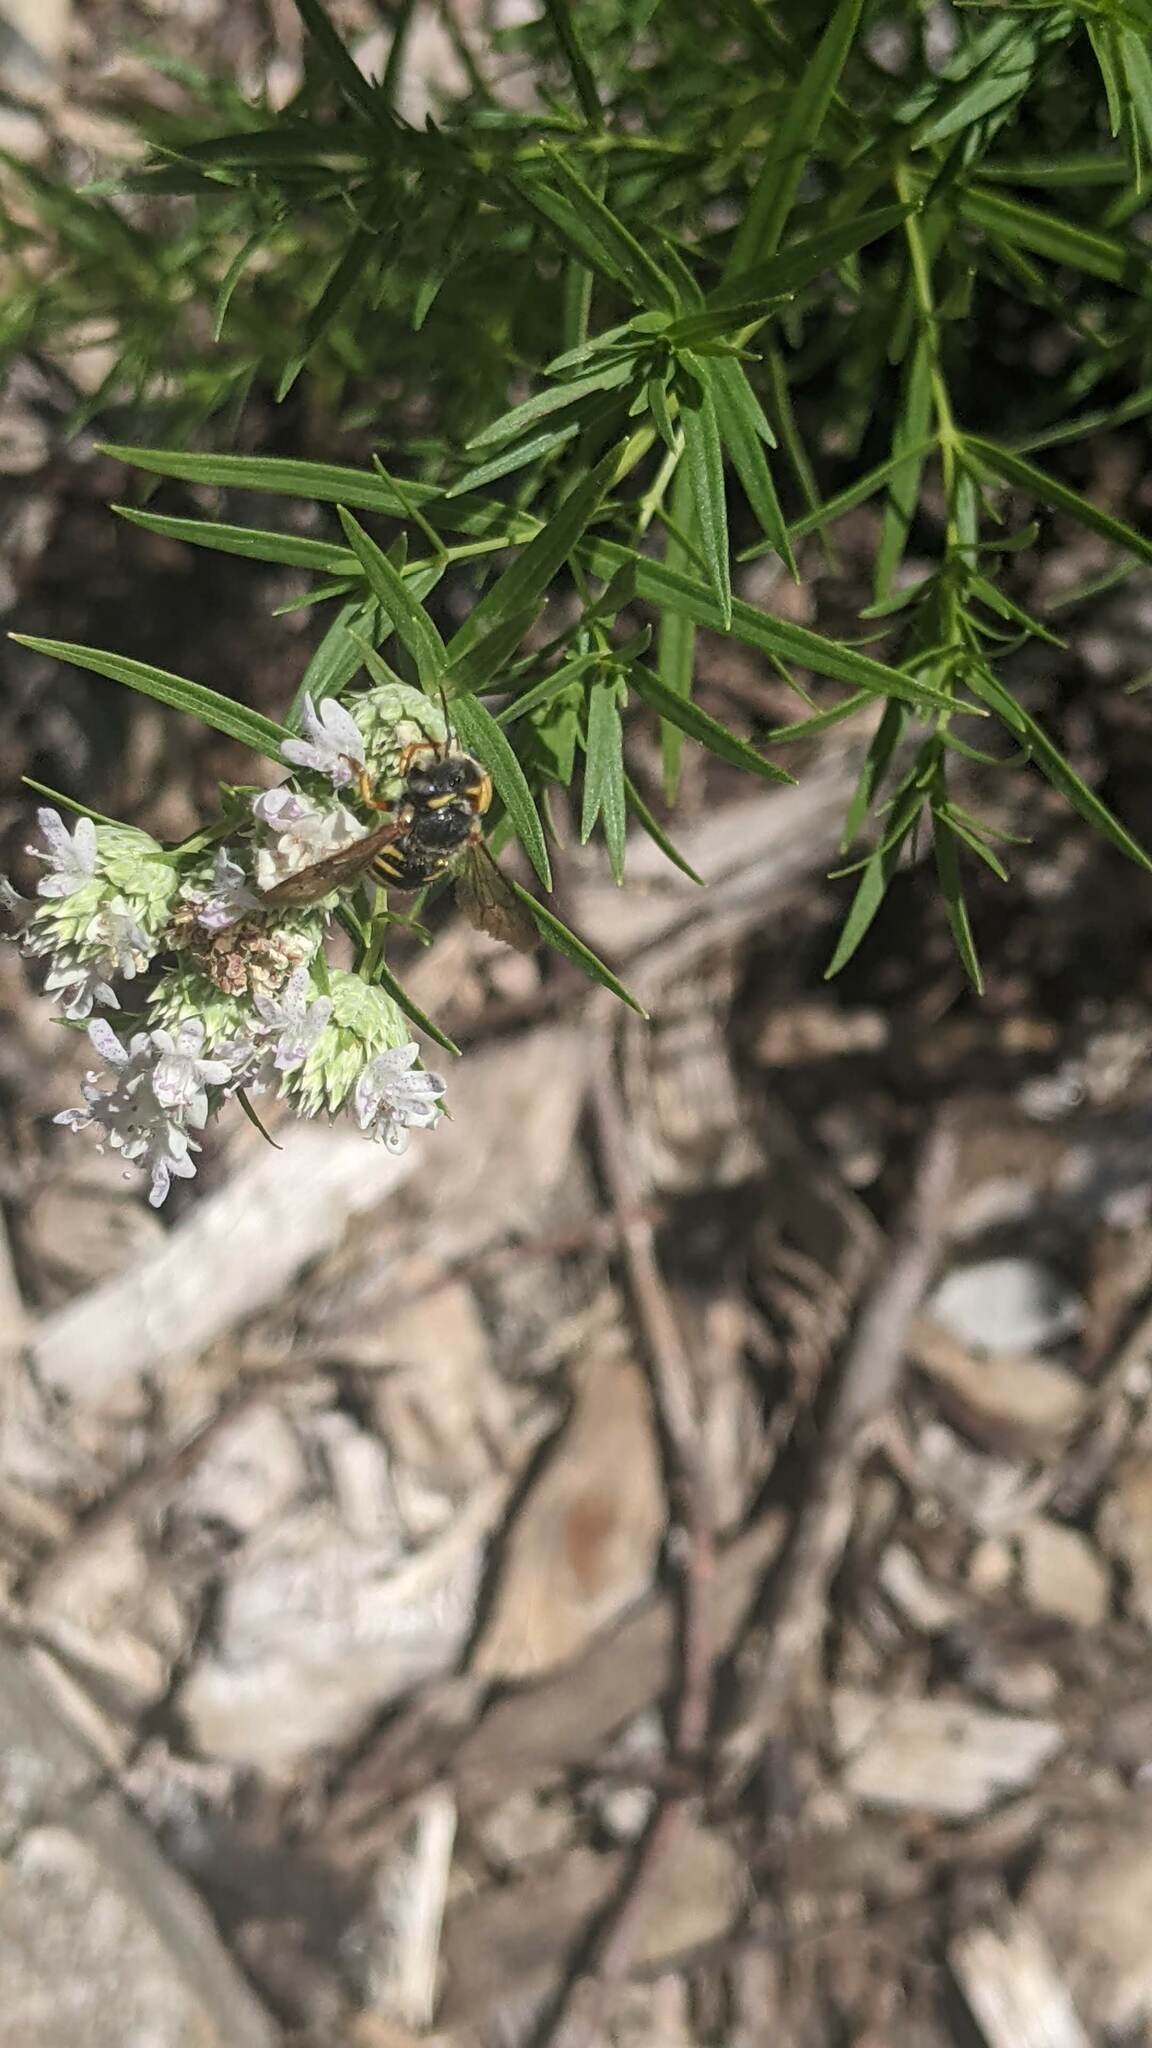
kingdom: Animalia
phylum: Arthropoda
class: Insecta
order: Hymenoptera
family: Megachilidae
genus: Anthidium
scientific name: Anthidium oblongatum
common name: Oblong wool carder bee
